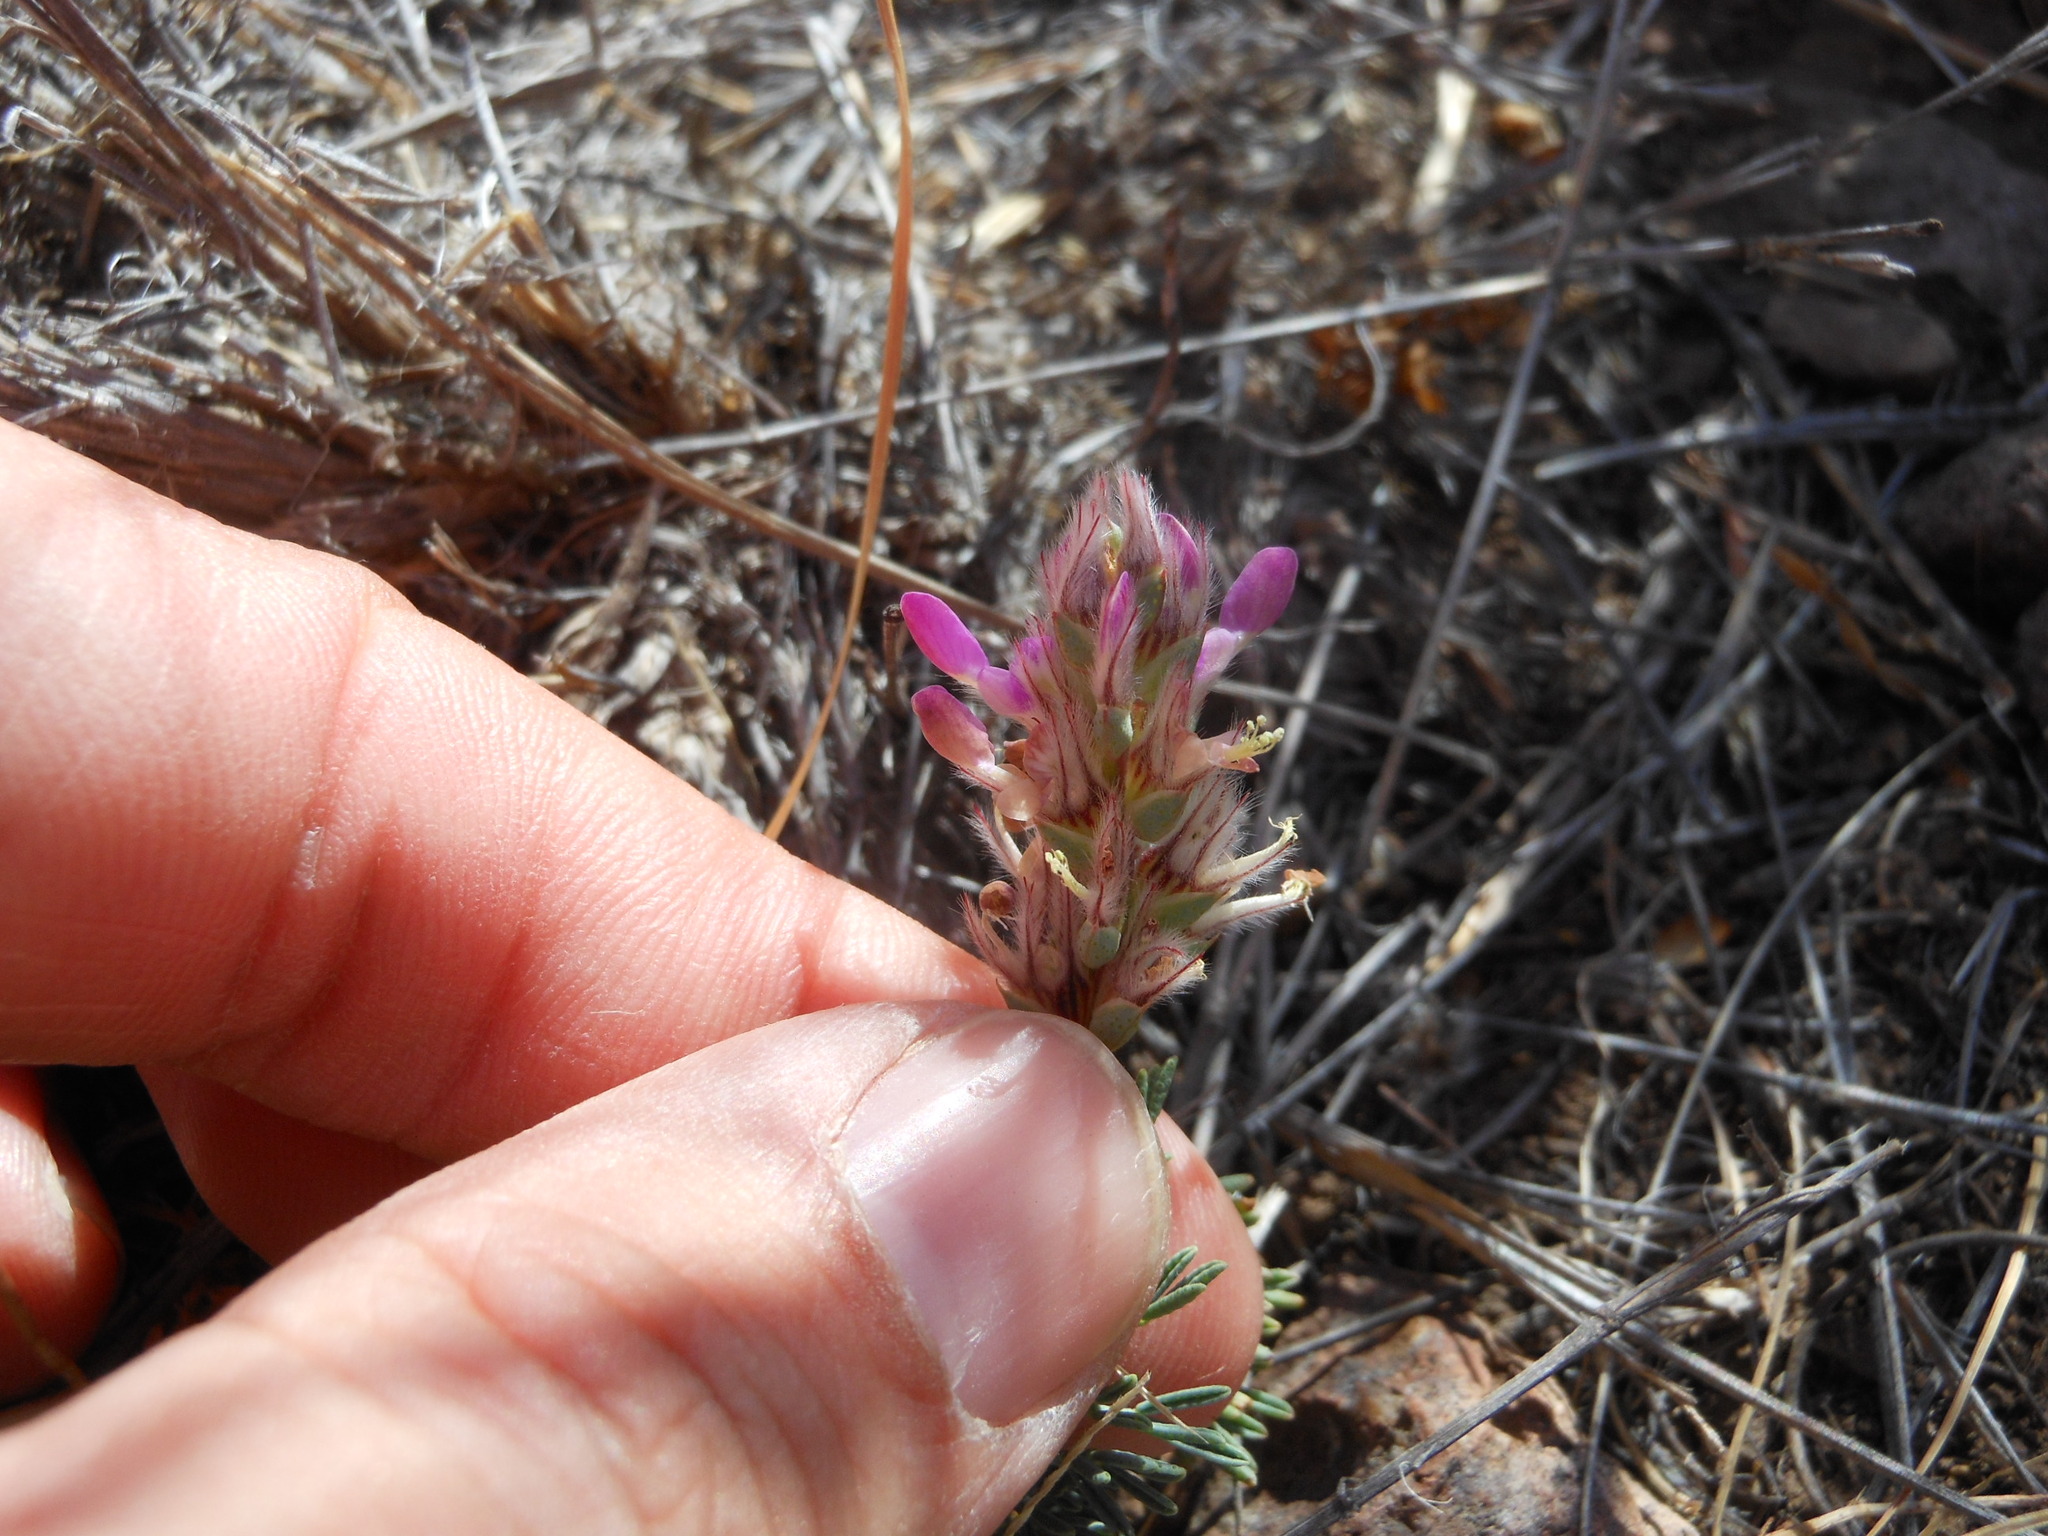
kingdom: Plantae
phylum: Tracheophyta
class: Magnoliopsida
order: Fabales
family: Fabaceae
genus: Dalea
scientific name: Dalea pogonathera
